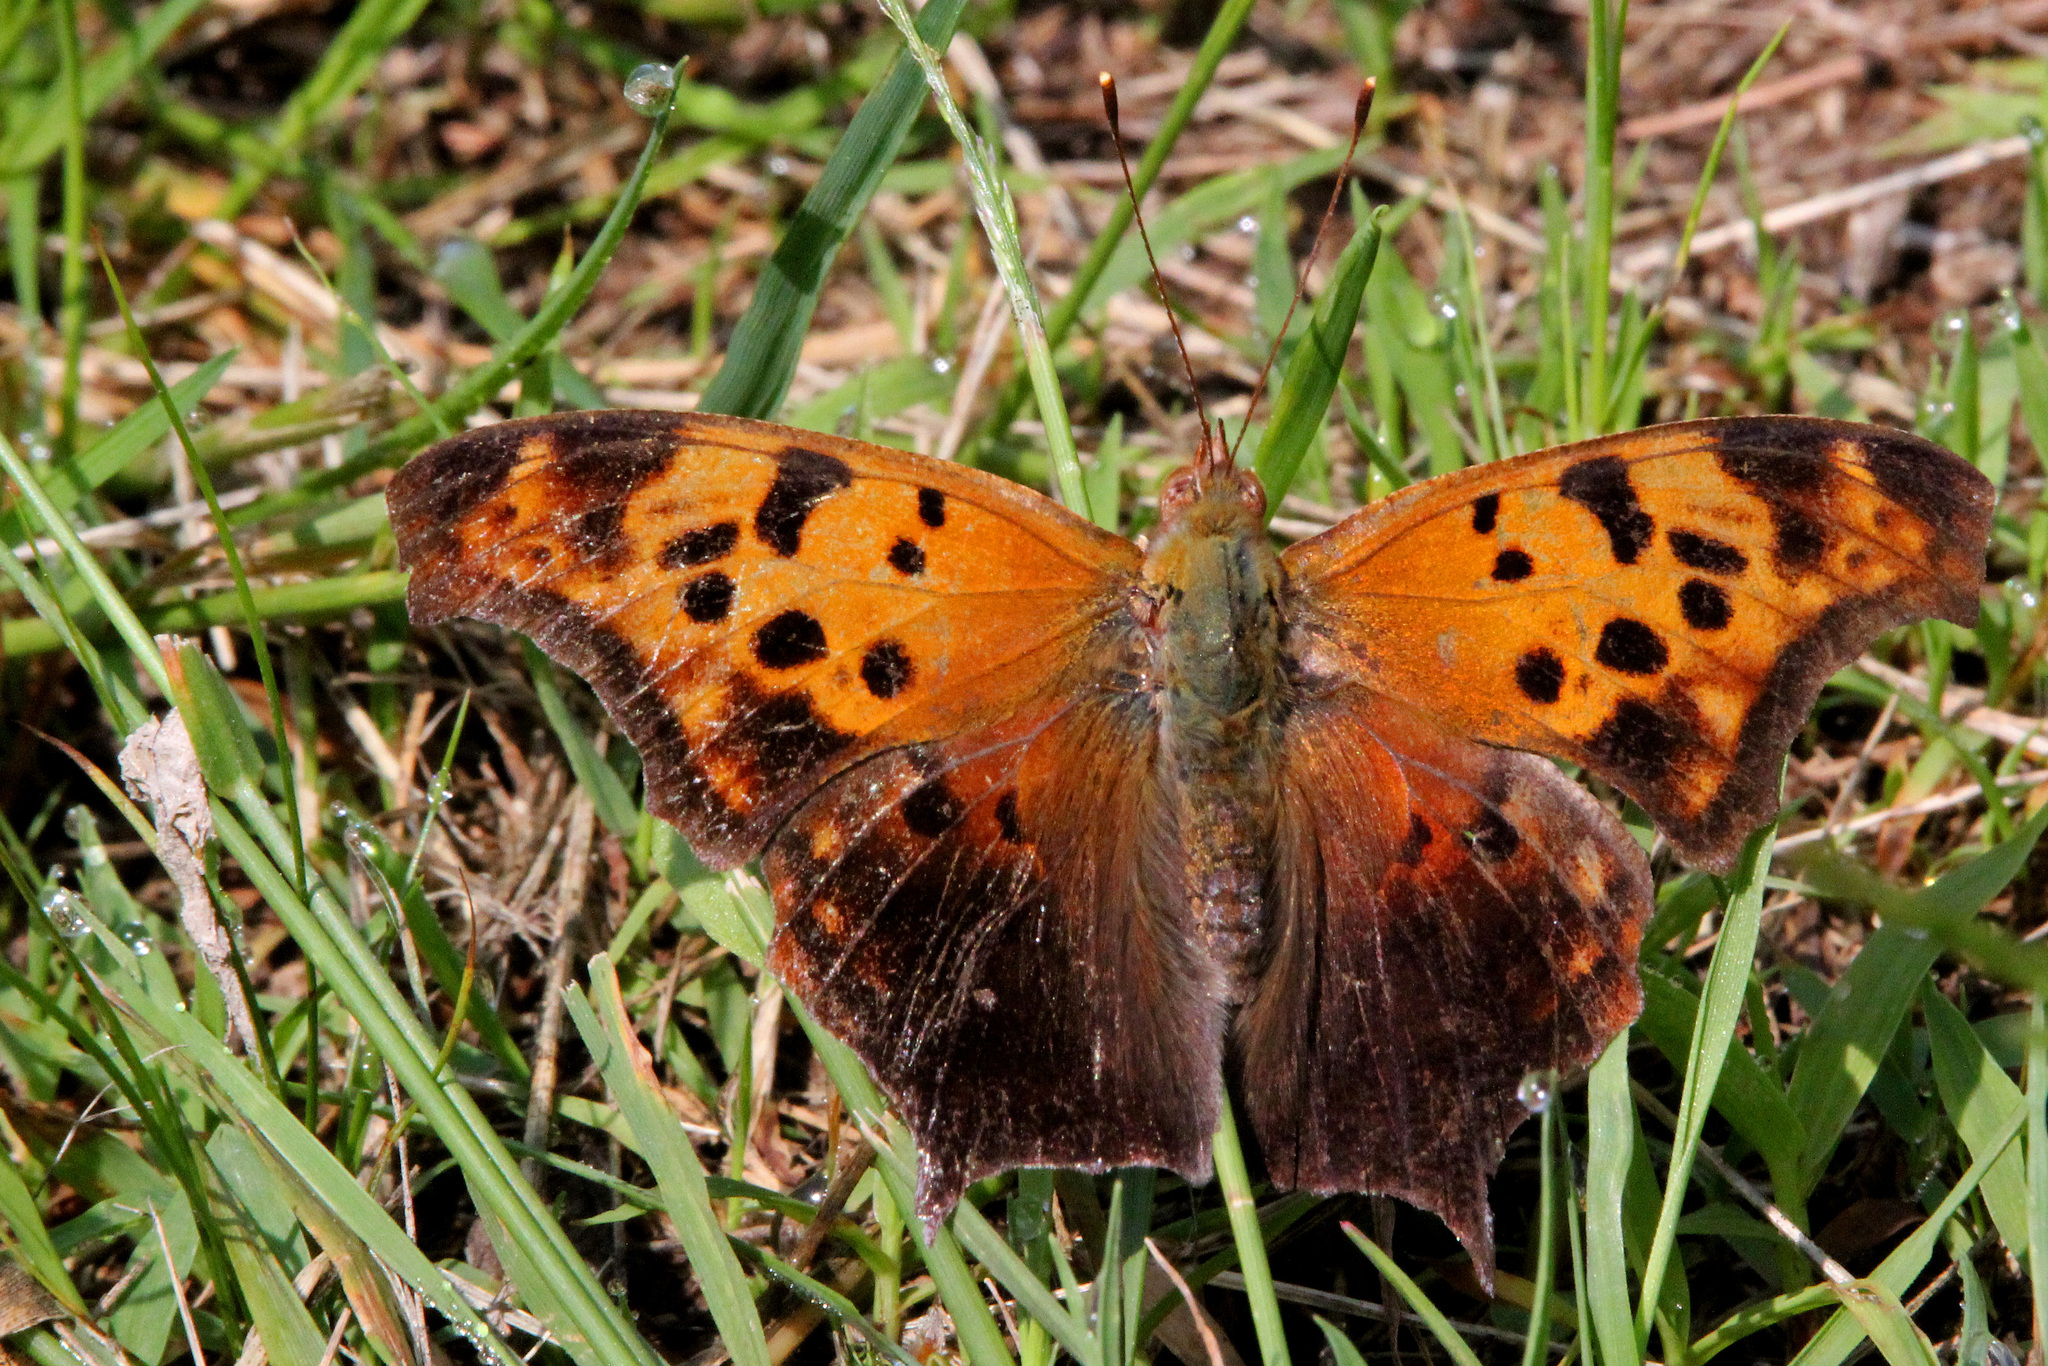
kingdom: Animalia
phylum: Arthropoda
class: Insecta
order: Lepidoptera
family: Nymphalidae
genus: Polygonia
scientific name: Polygonia interrogationis
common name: Question mark
